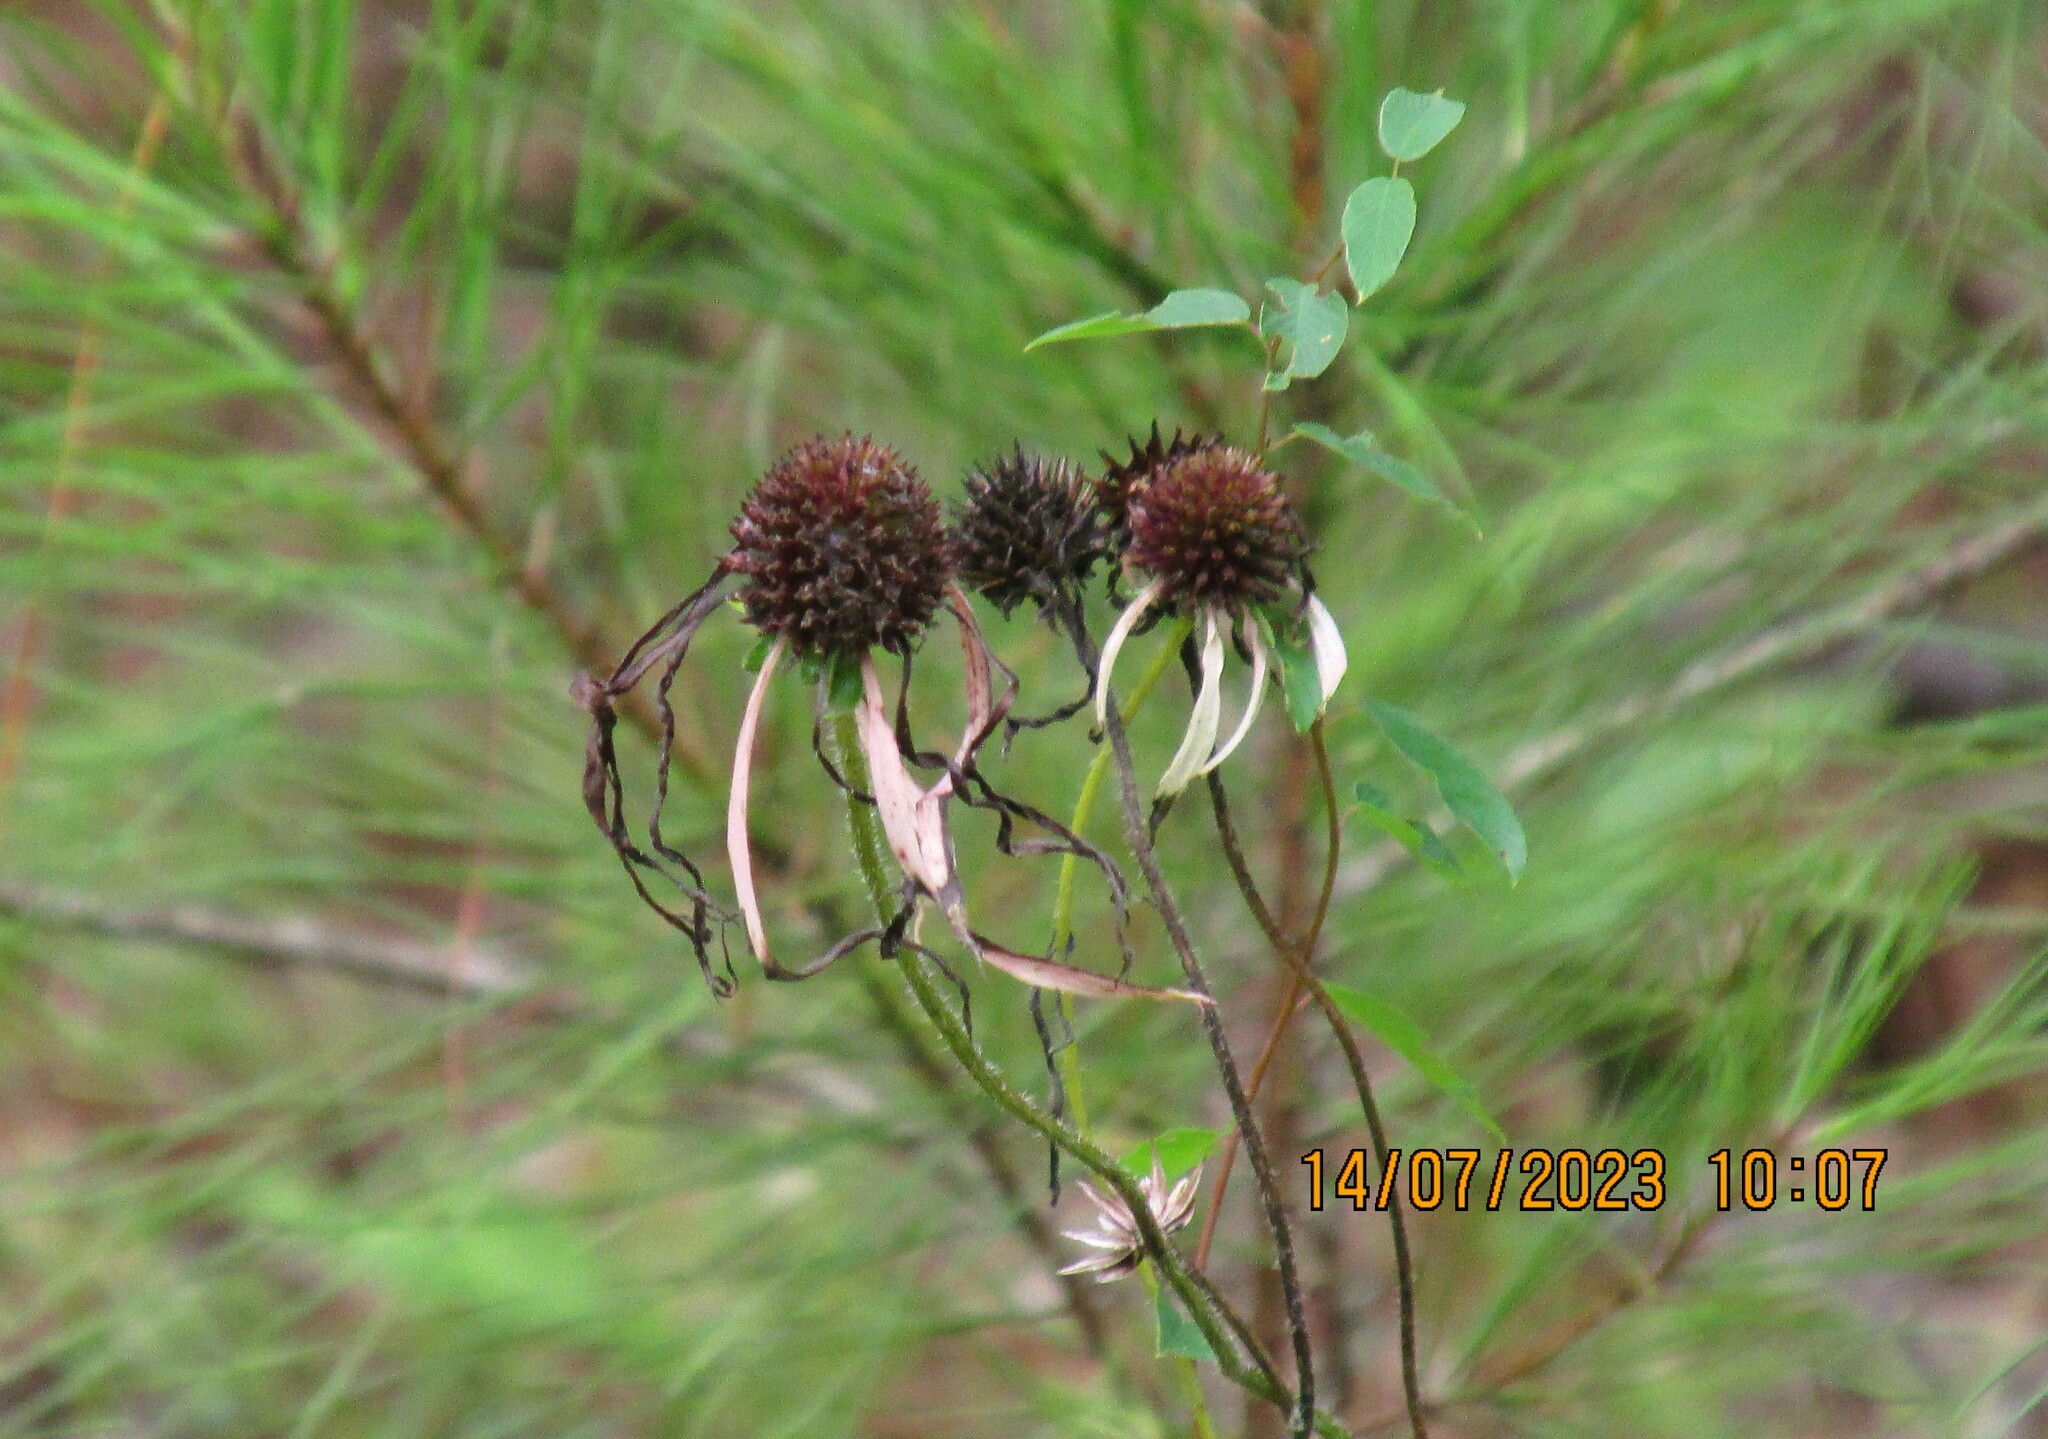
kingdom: Plantae
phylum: Tracheophyta
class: Magnoliopsida
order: Asterales
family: Asteraceae
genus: Echinacea
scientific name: Echinacea sanguinea
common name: Sanguine purple-coneflower
